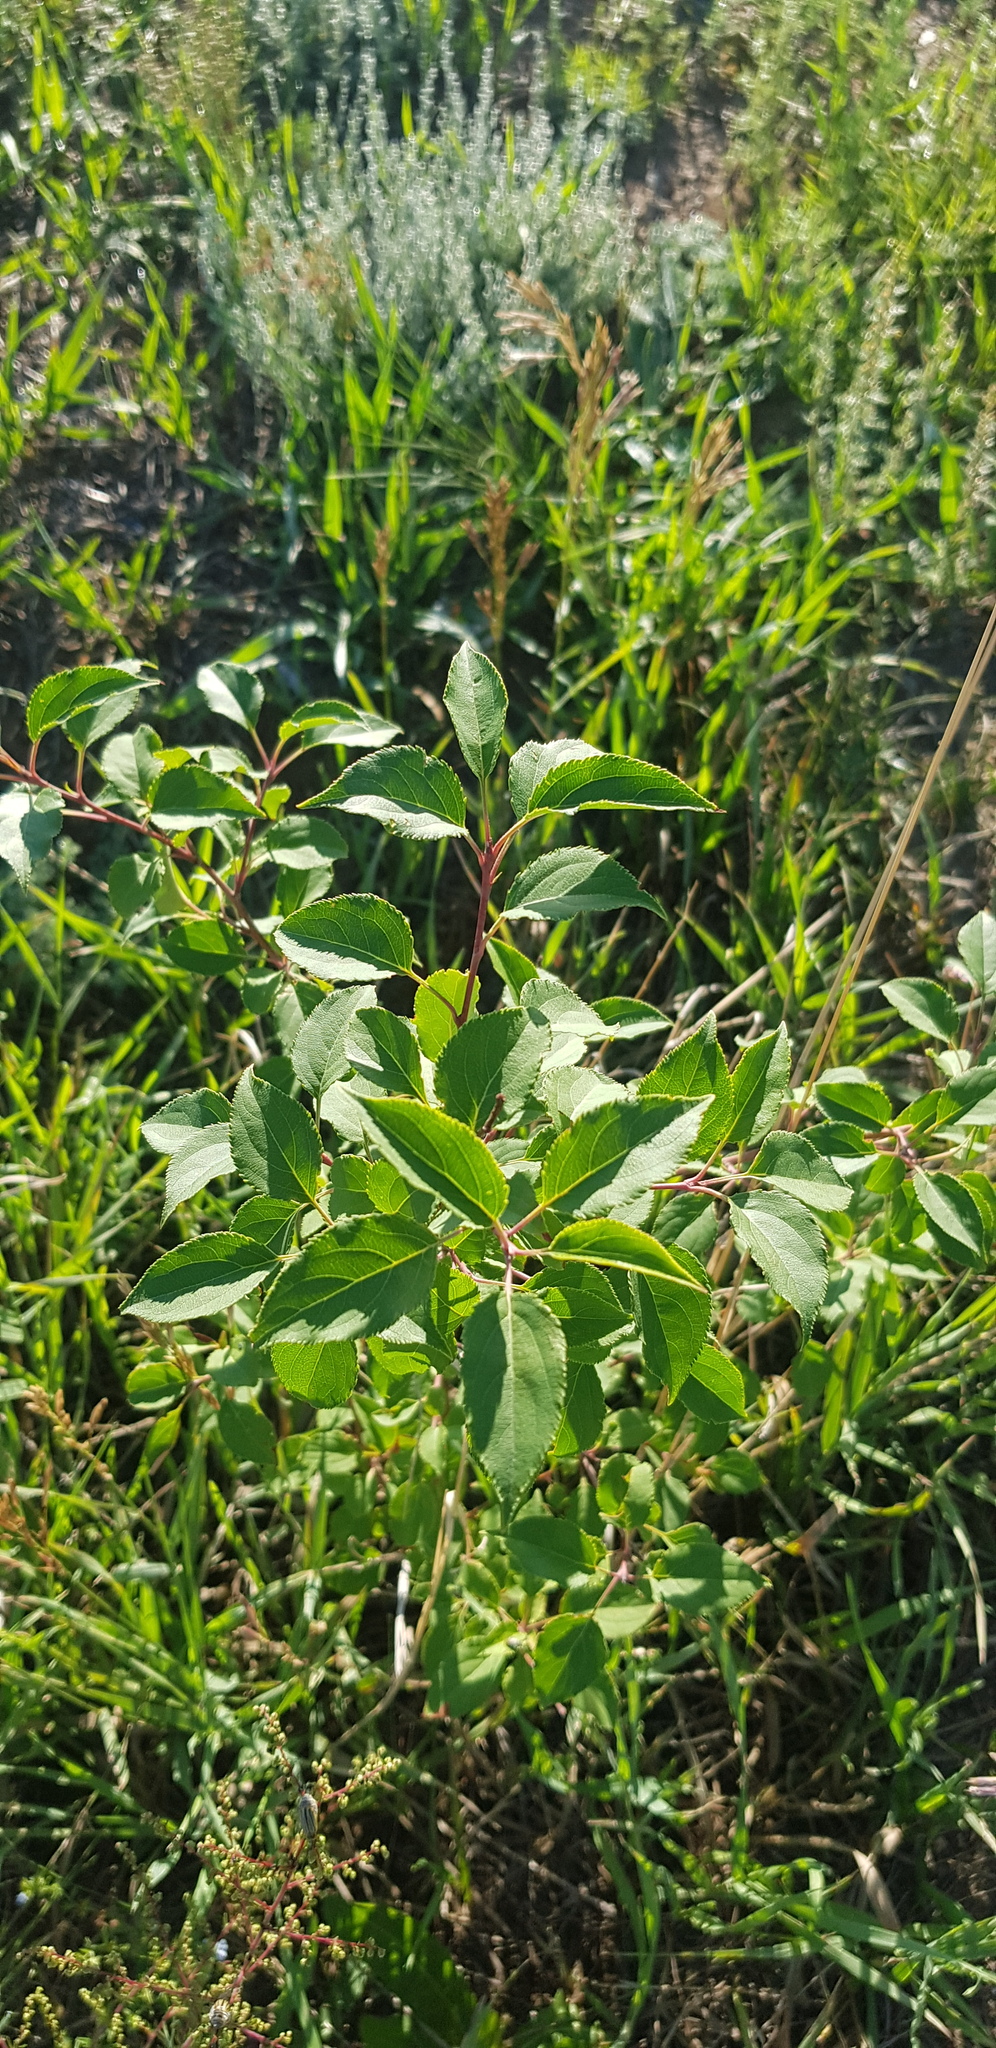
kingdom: Plantae
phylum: Tracheophyta
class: Magnoliopsida
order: Rosales
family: Rosaceae
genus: Malus
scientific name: Malus baccata
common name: Siberian crab
